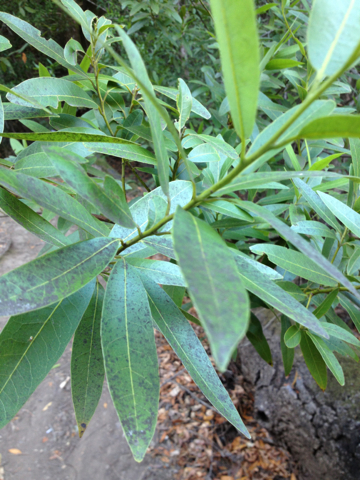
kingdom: Plantae
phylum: Tracheophyta
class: Magnoliopsida
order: Laurales
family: Lauraceae
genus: Umbellularia
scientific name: Umbellularia californica
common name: California bay
